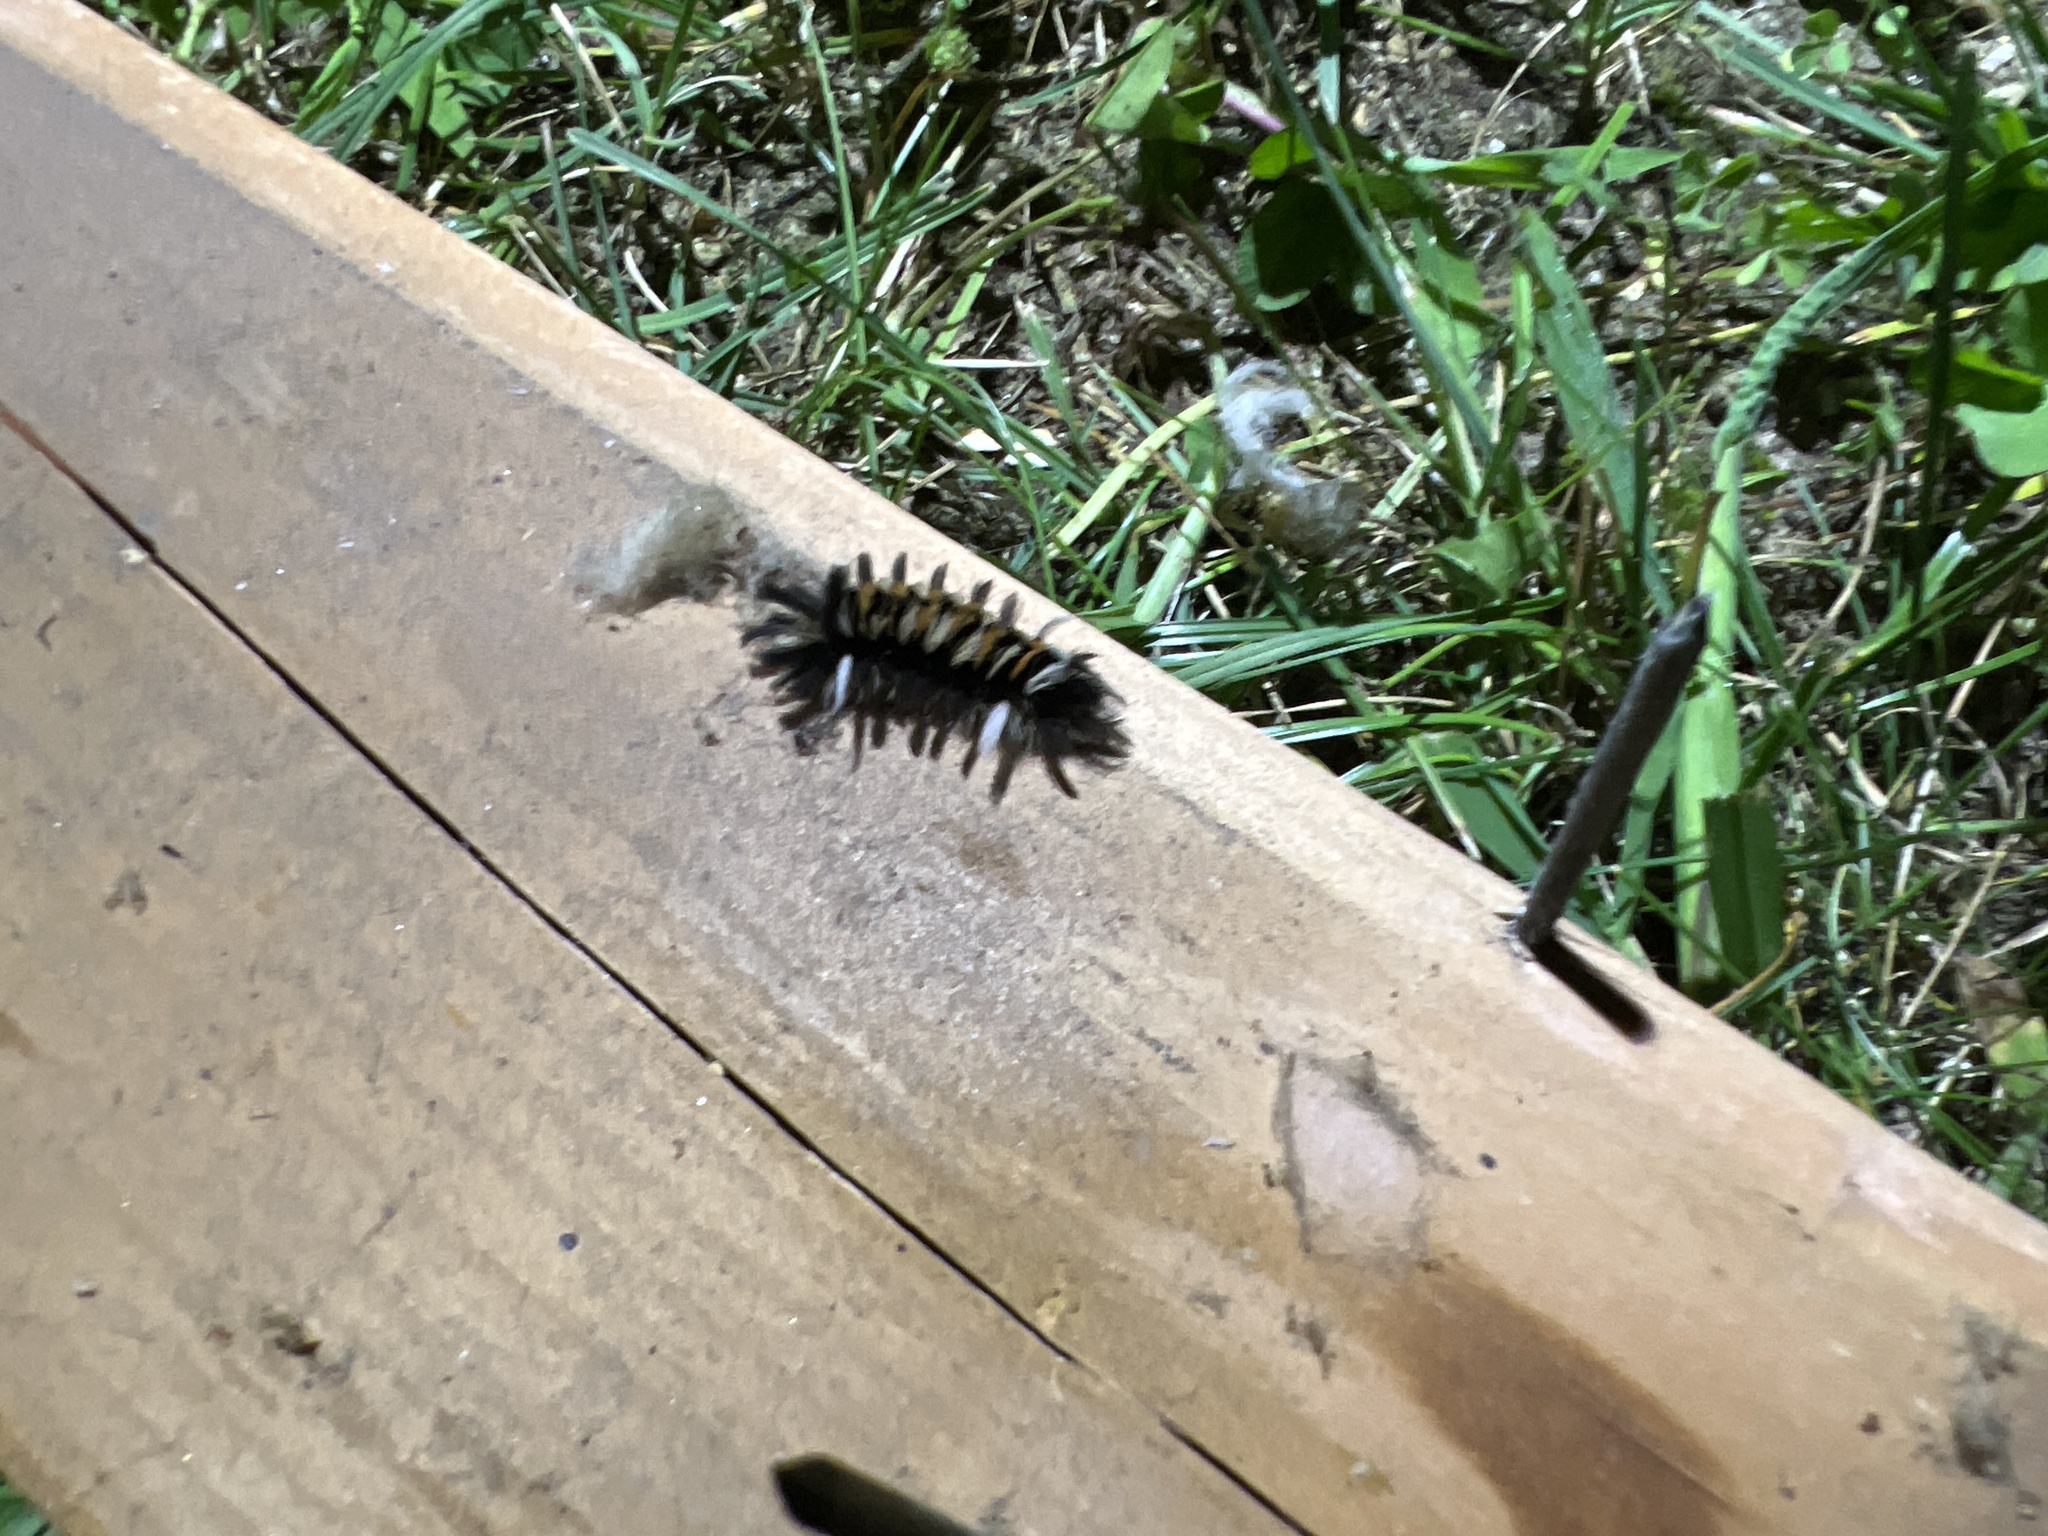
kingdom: Animalia
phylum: Arthropoda
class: Insecta
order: Lepidoptera
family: Erebidae
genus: Euchaetes
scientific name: Euchaetes egle
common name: Milkweed tussock moth
